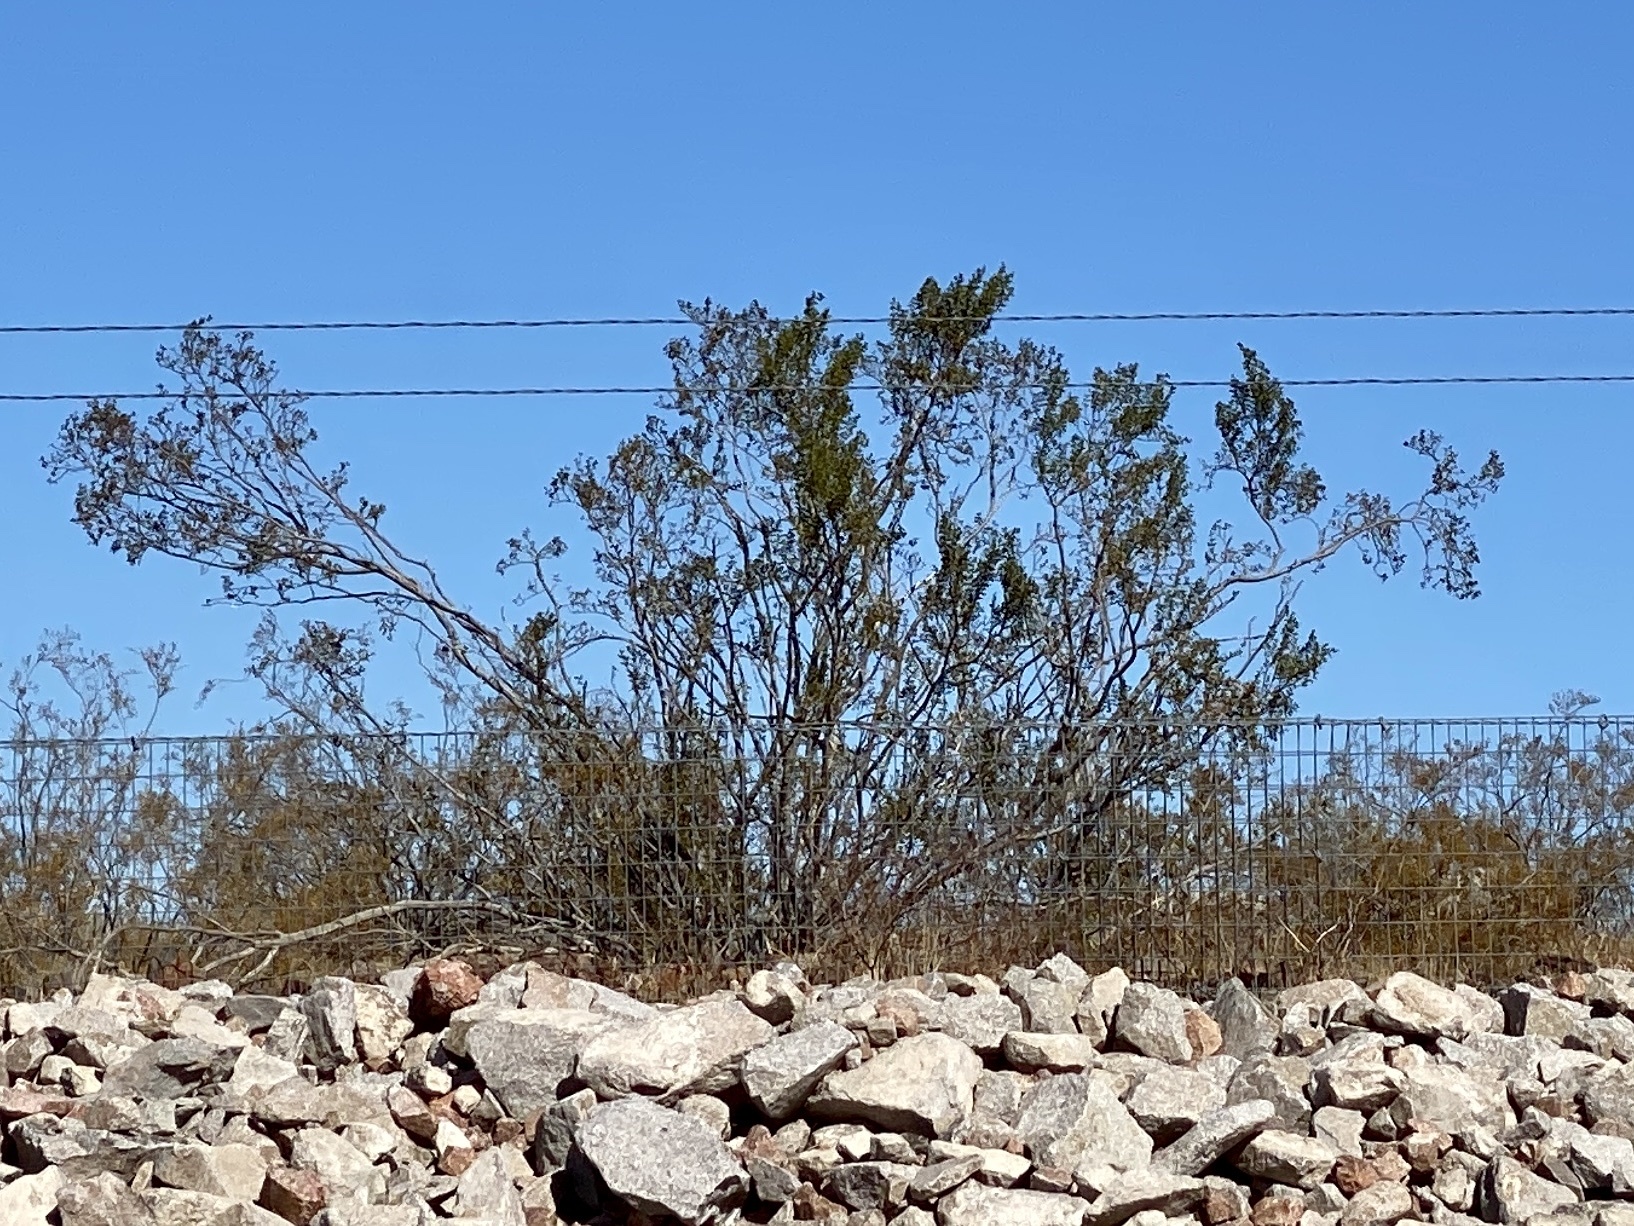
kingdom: Plantae
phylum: Tracheophyta
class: Magnoliopsida
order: Zygophyllales
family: Zygophyllaceae
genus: Larrea
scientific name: Larrea tridentata
